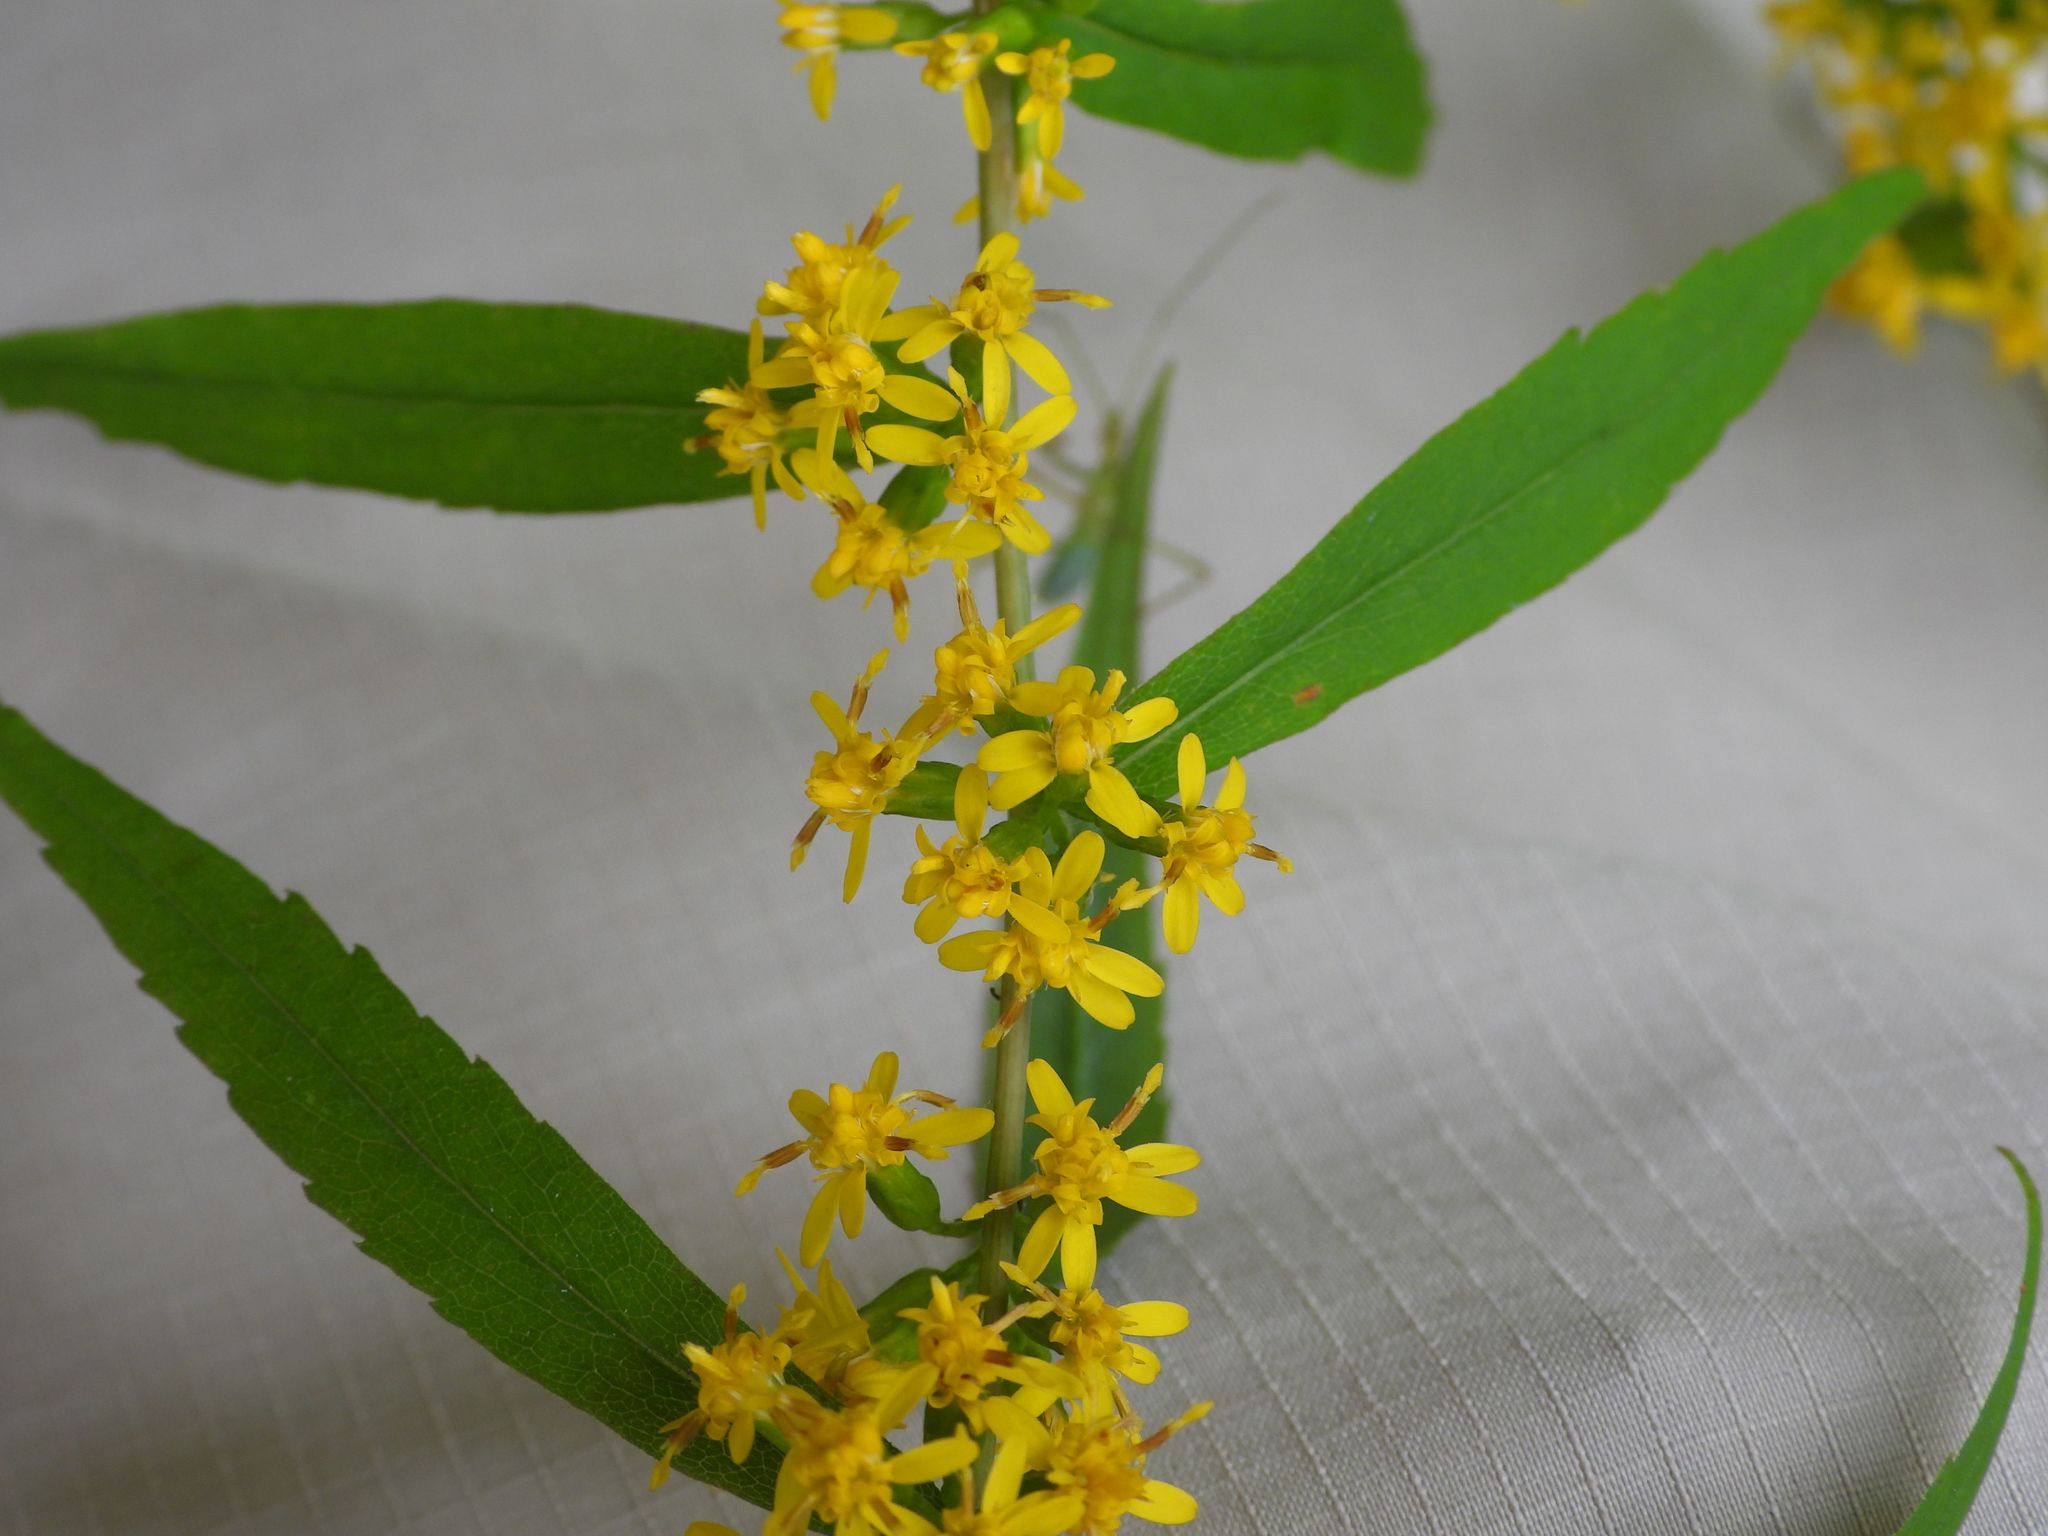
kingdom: Plantae
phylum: Tracheophyta
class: Magnoliopsida
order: Asterales
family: Asteraceae
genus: Solidago
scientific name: Solidago caesia
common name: Woodland goldenrod
